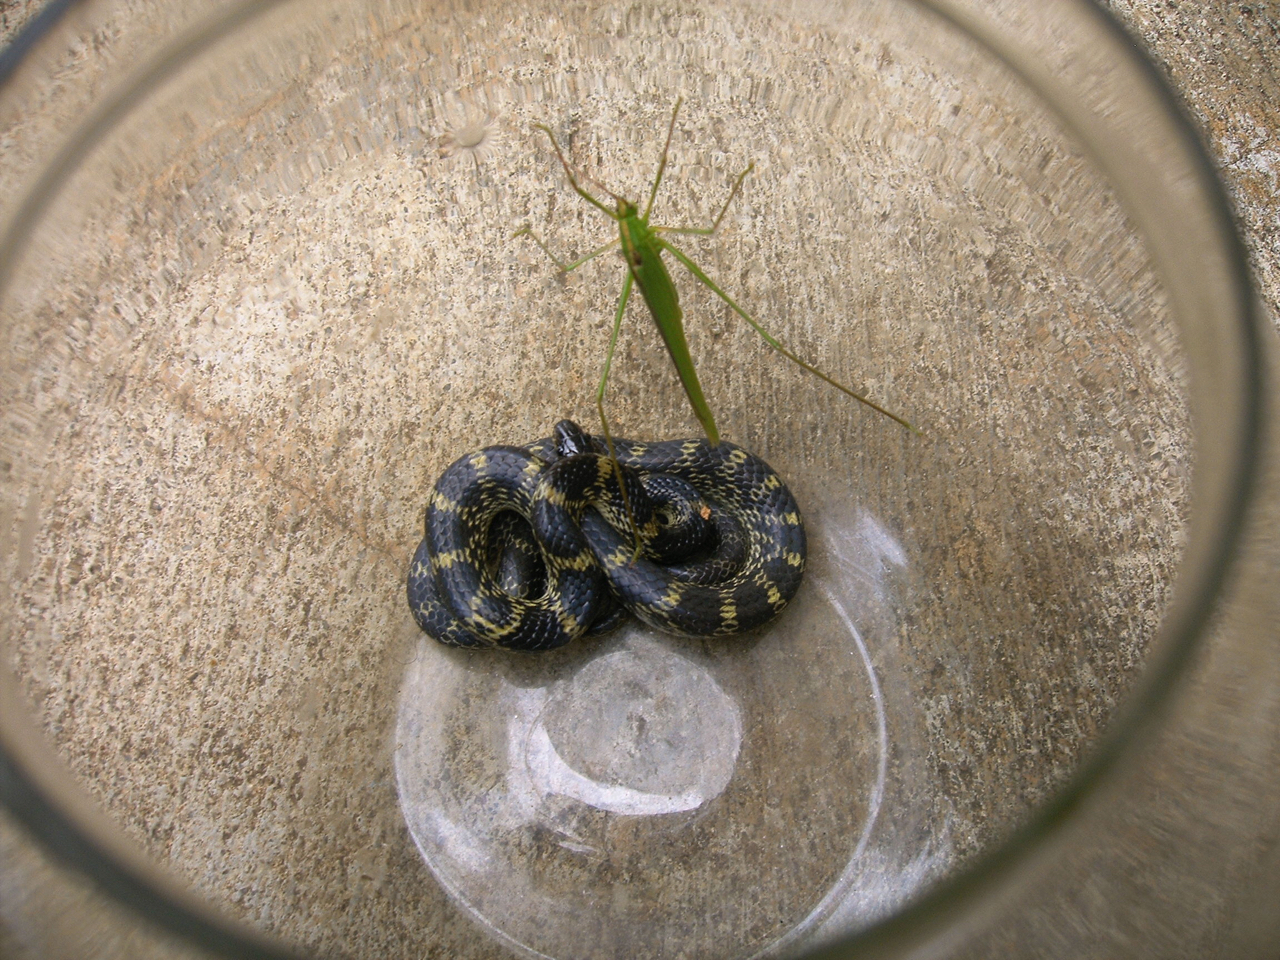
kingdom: Animalia
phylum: Chordata
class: Squamata
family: Colubridae
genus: Lycodon
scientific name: Lycodon travancoricus
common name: Travancore wolf snake
